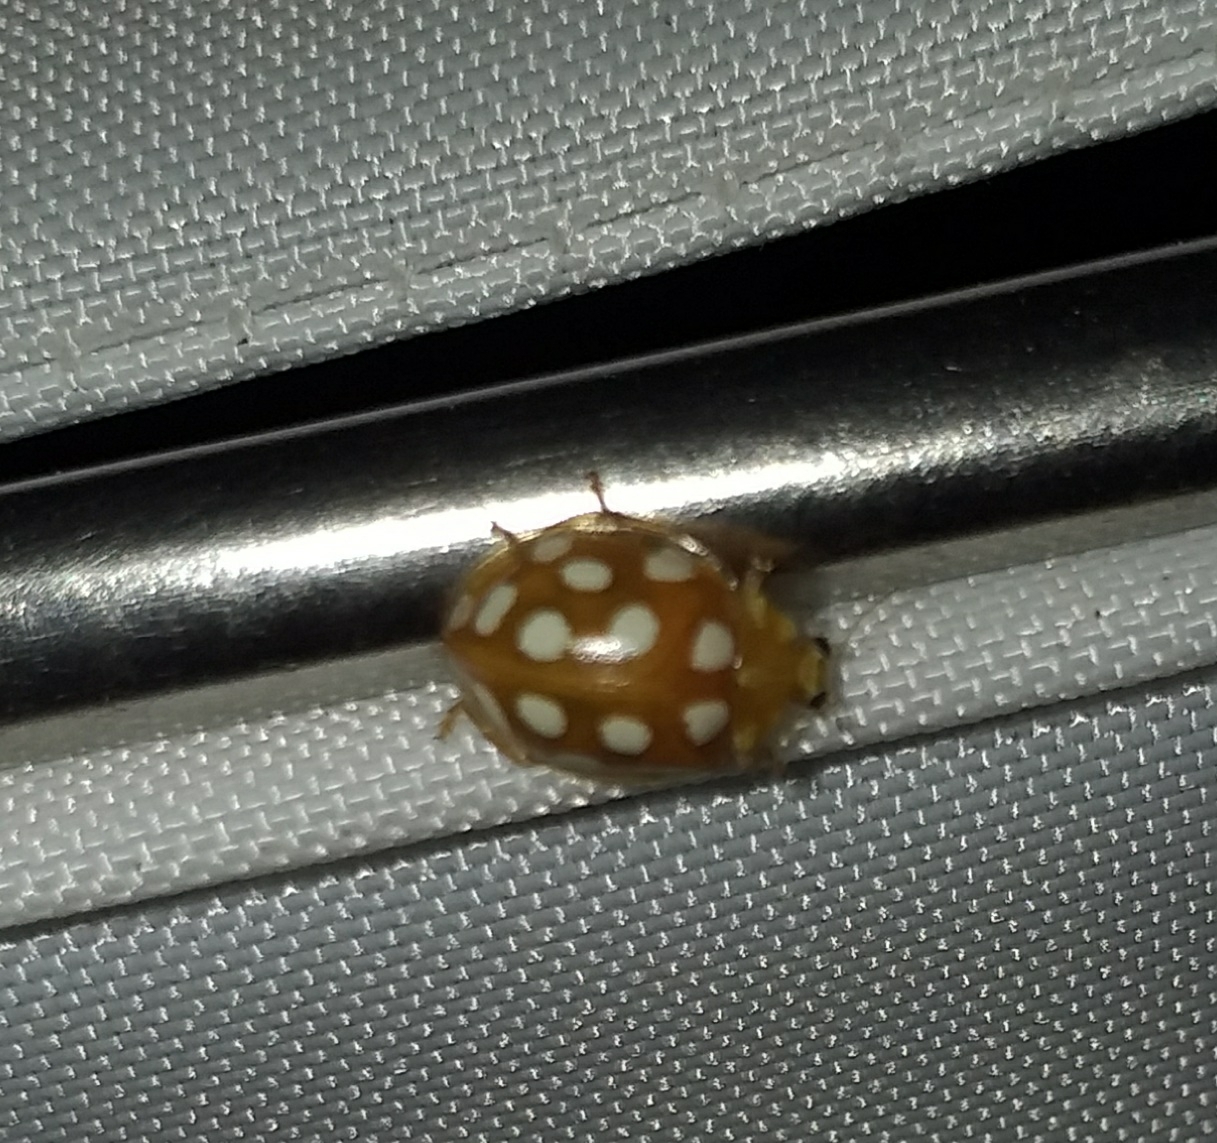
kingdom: Animalia
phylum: Arthropoda
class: Insecta
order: Coleoptera
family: Coccinellidae
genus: Halyzia
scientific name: Halyzia sedecimguttata
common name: Orange ladybird
